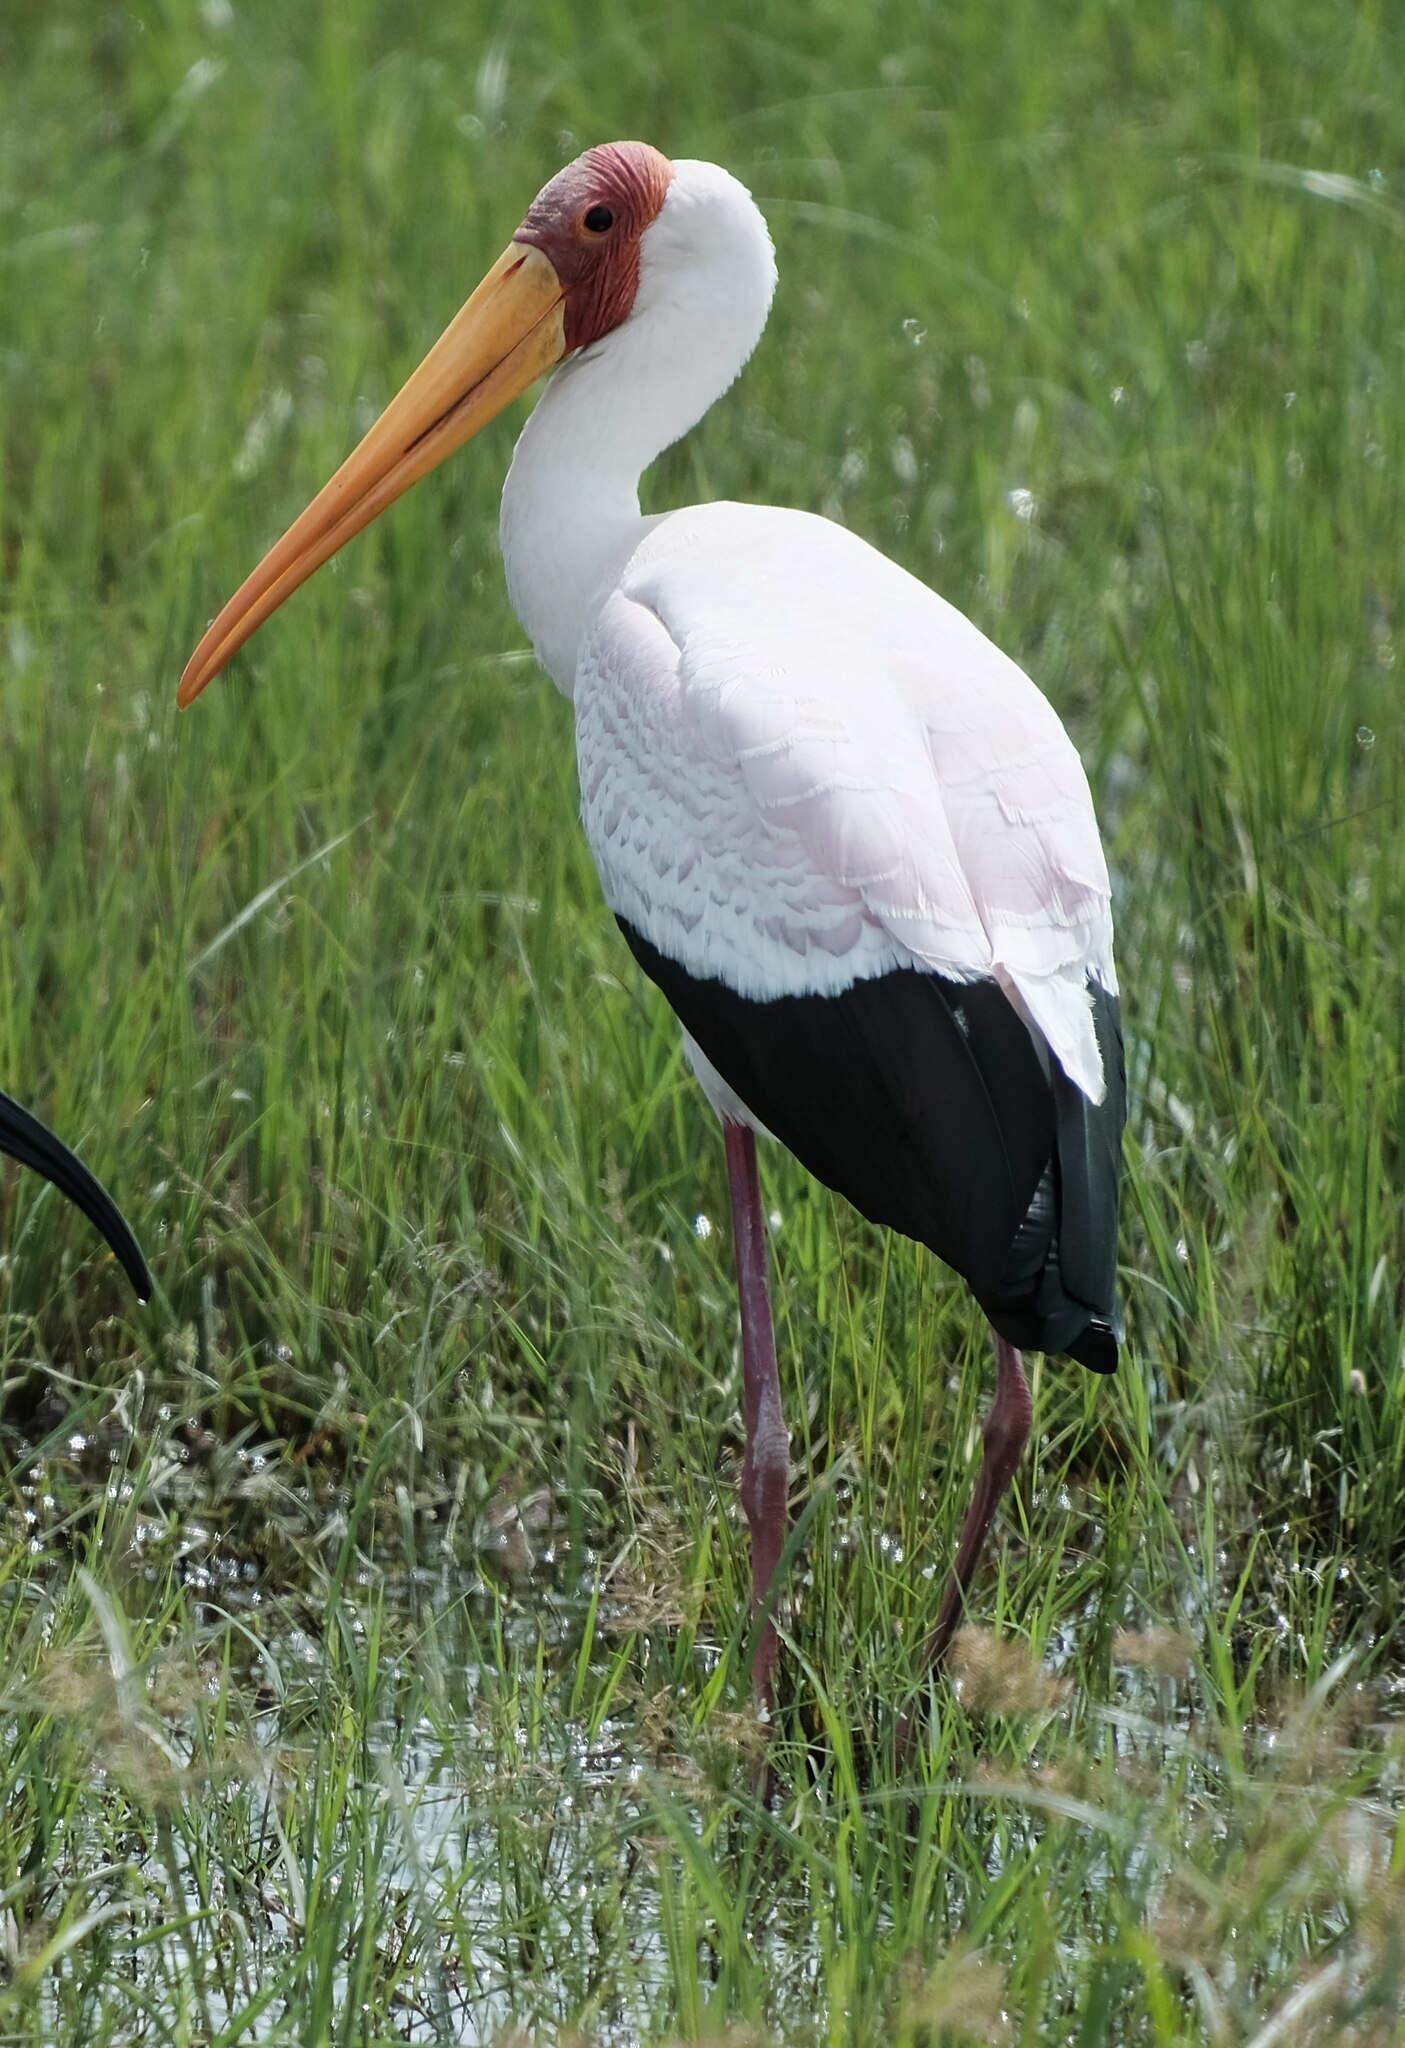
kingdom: Animalia
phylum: Chordata
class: Aves
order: Ciconiiformes
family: Ciconiidae
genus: Mycteria
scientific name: Mycteria ibis
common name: Yellow-billed stork
